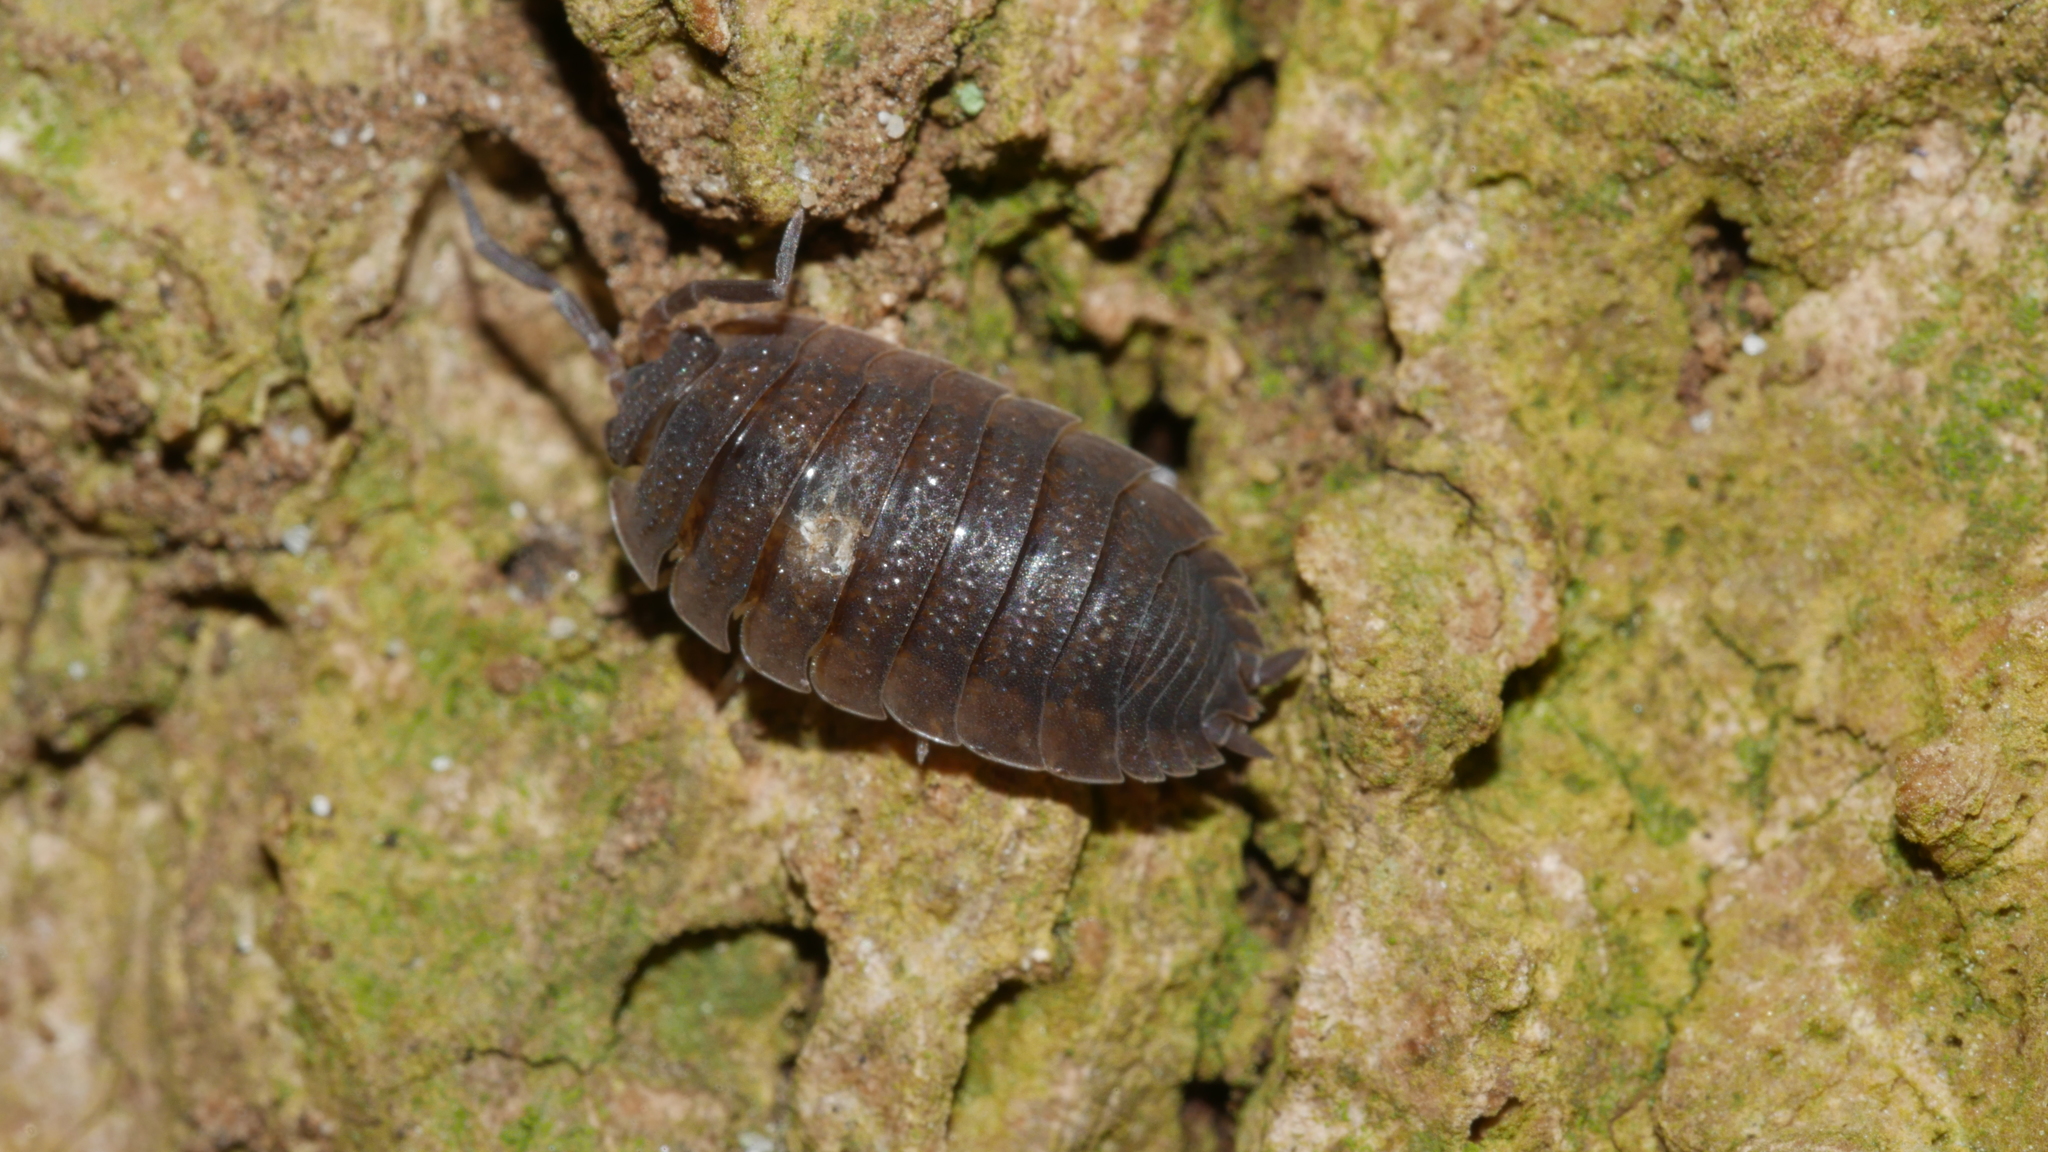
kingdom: Animalia
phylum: Arthropoda
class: Malacostraca
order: Isopoda
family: Porcellionidae
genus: Porcellio
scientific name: Porcellio scaber
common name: Common rough woodlouse
